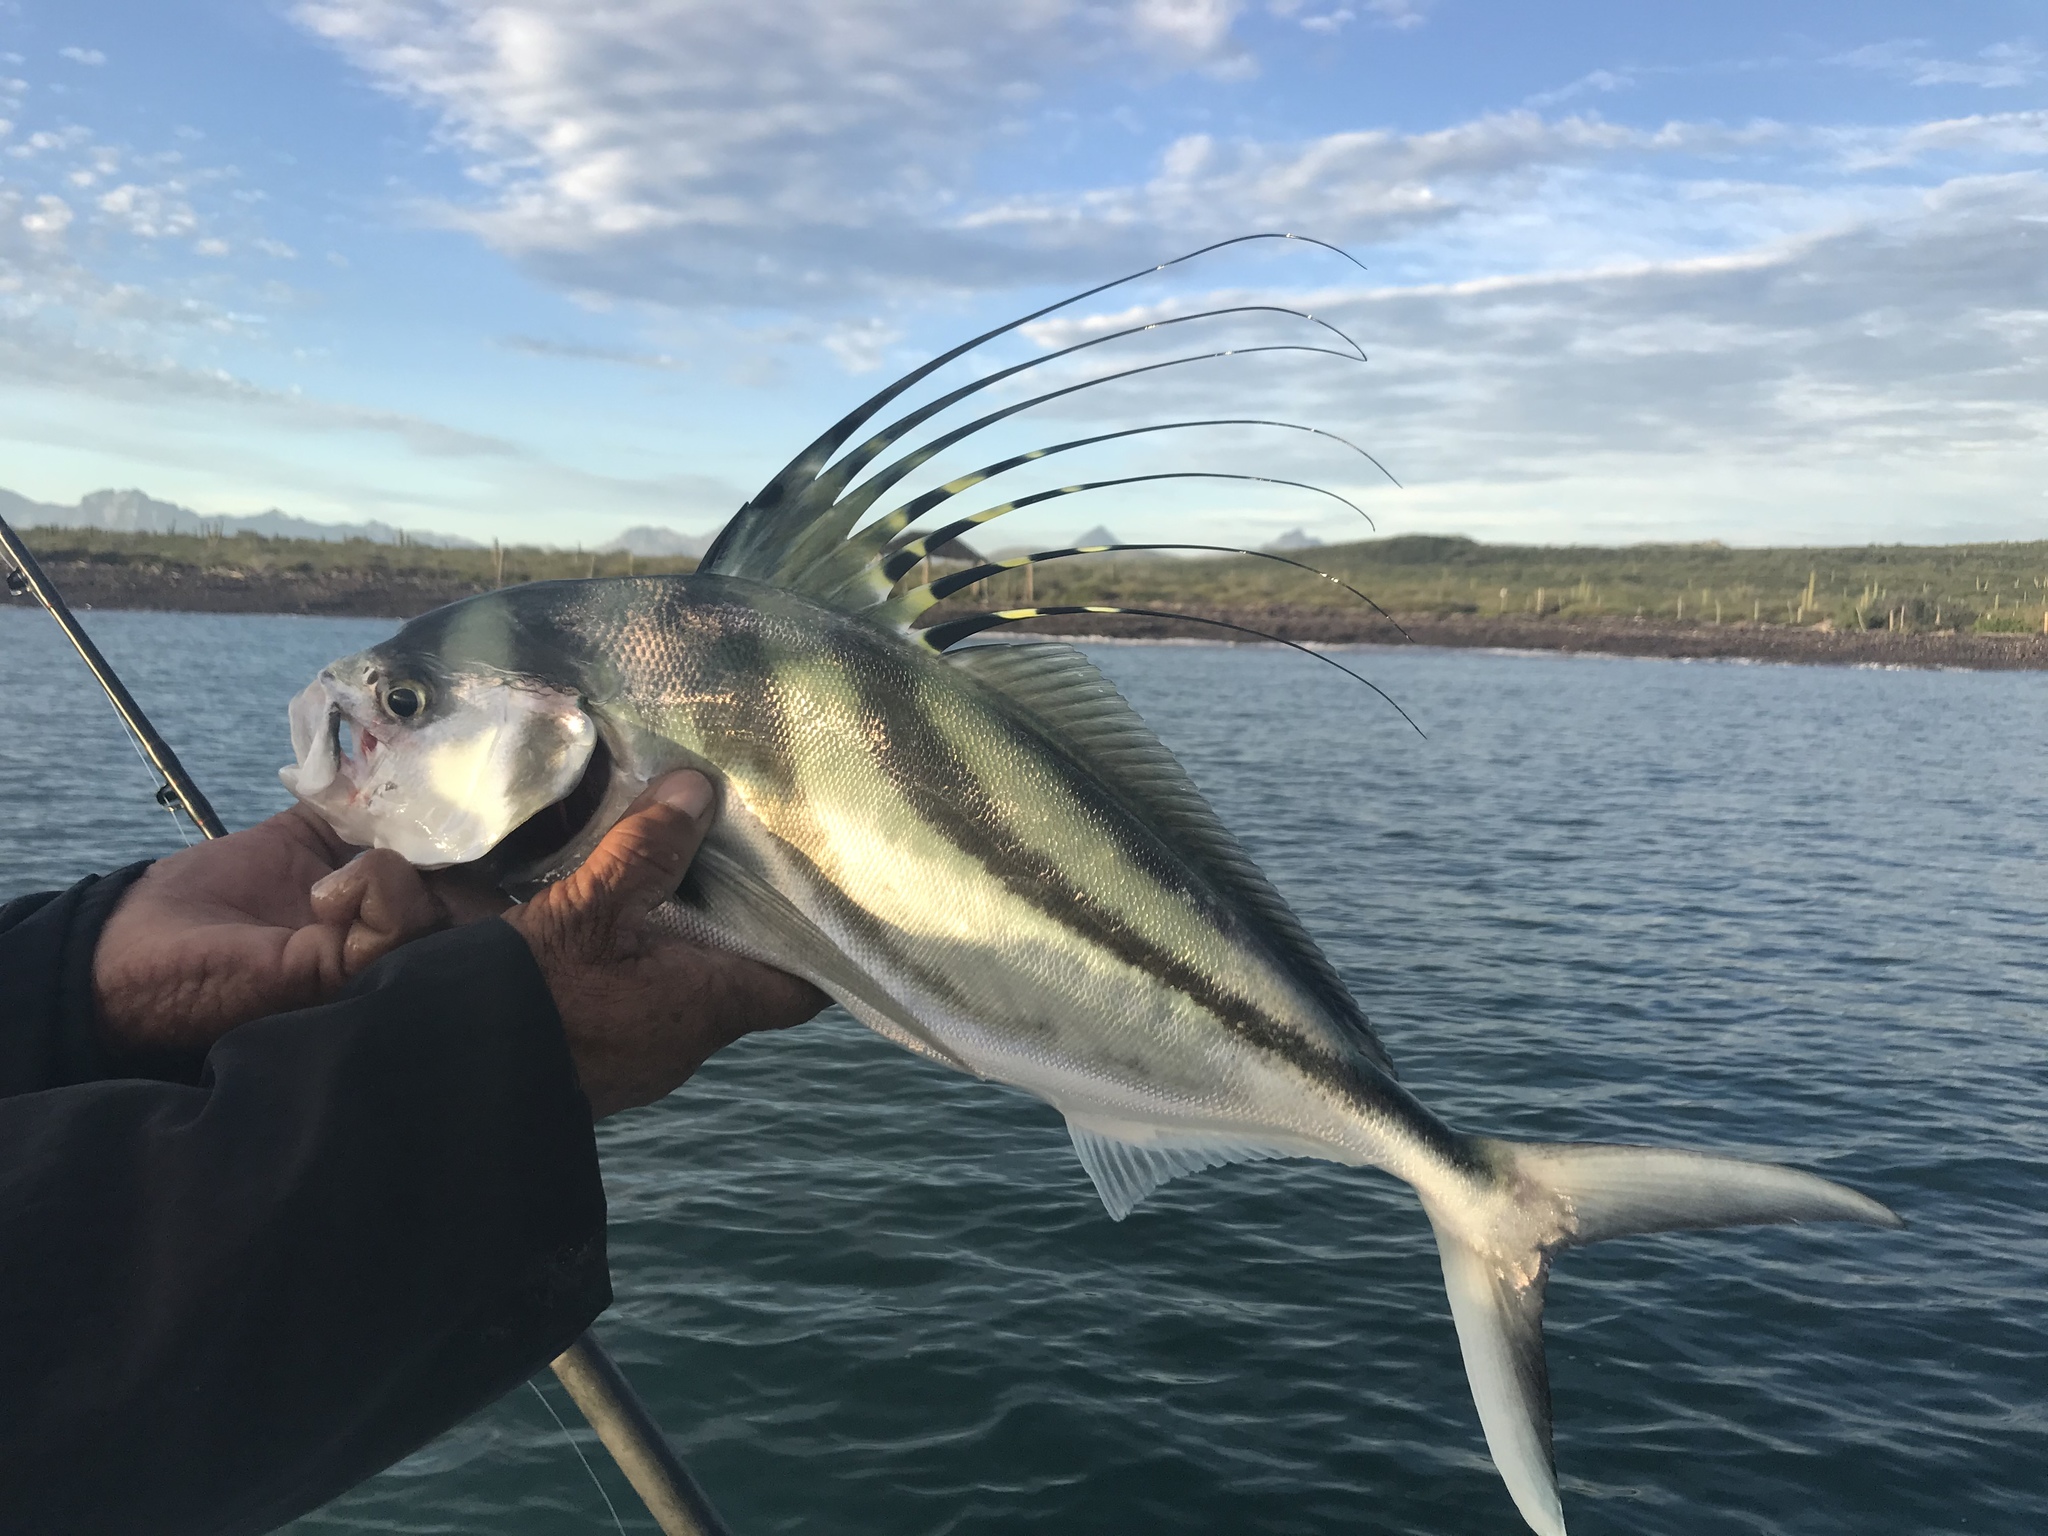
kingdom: Animalia
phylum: Chordata
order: Perciformes
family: Nematistiidae
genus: Nematistius
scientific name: Nematistius pectoralis
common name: Roosterfish
